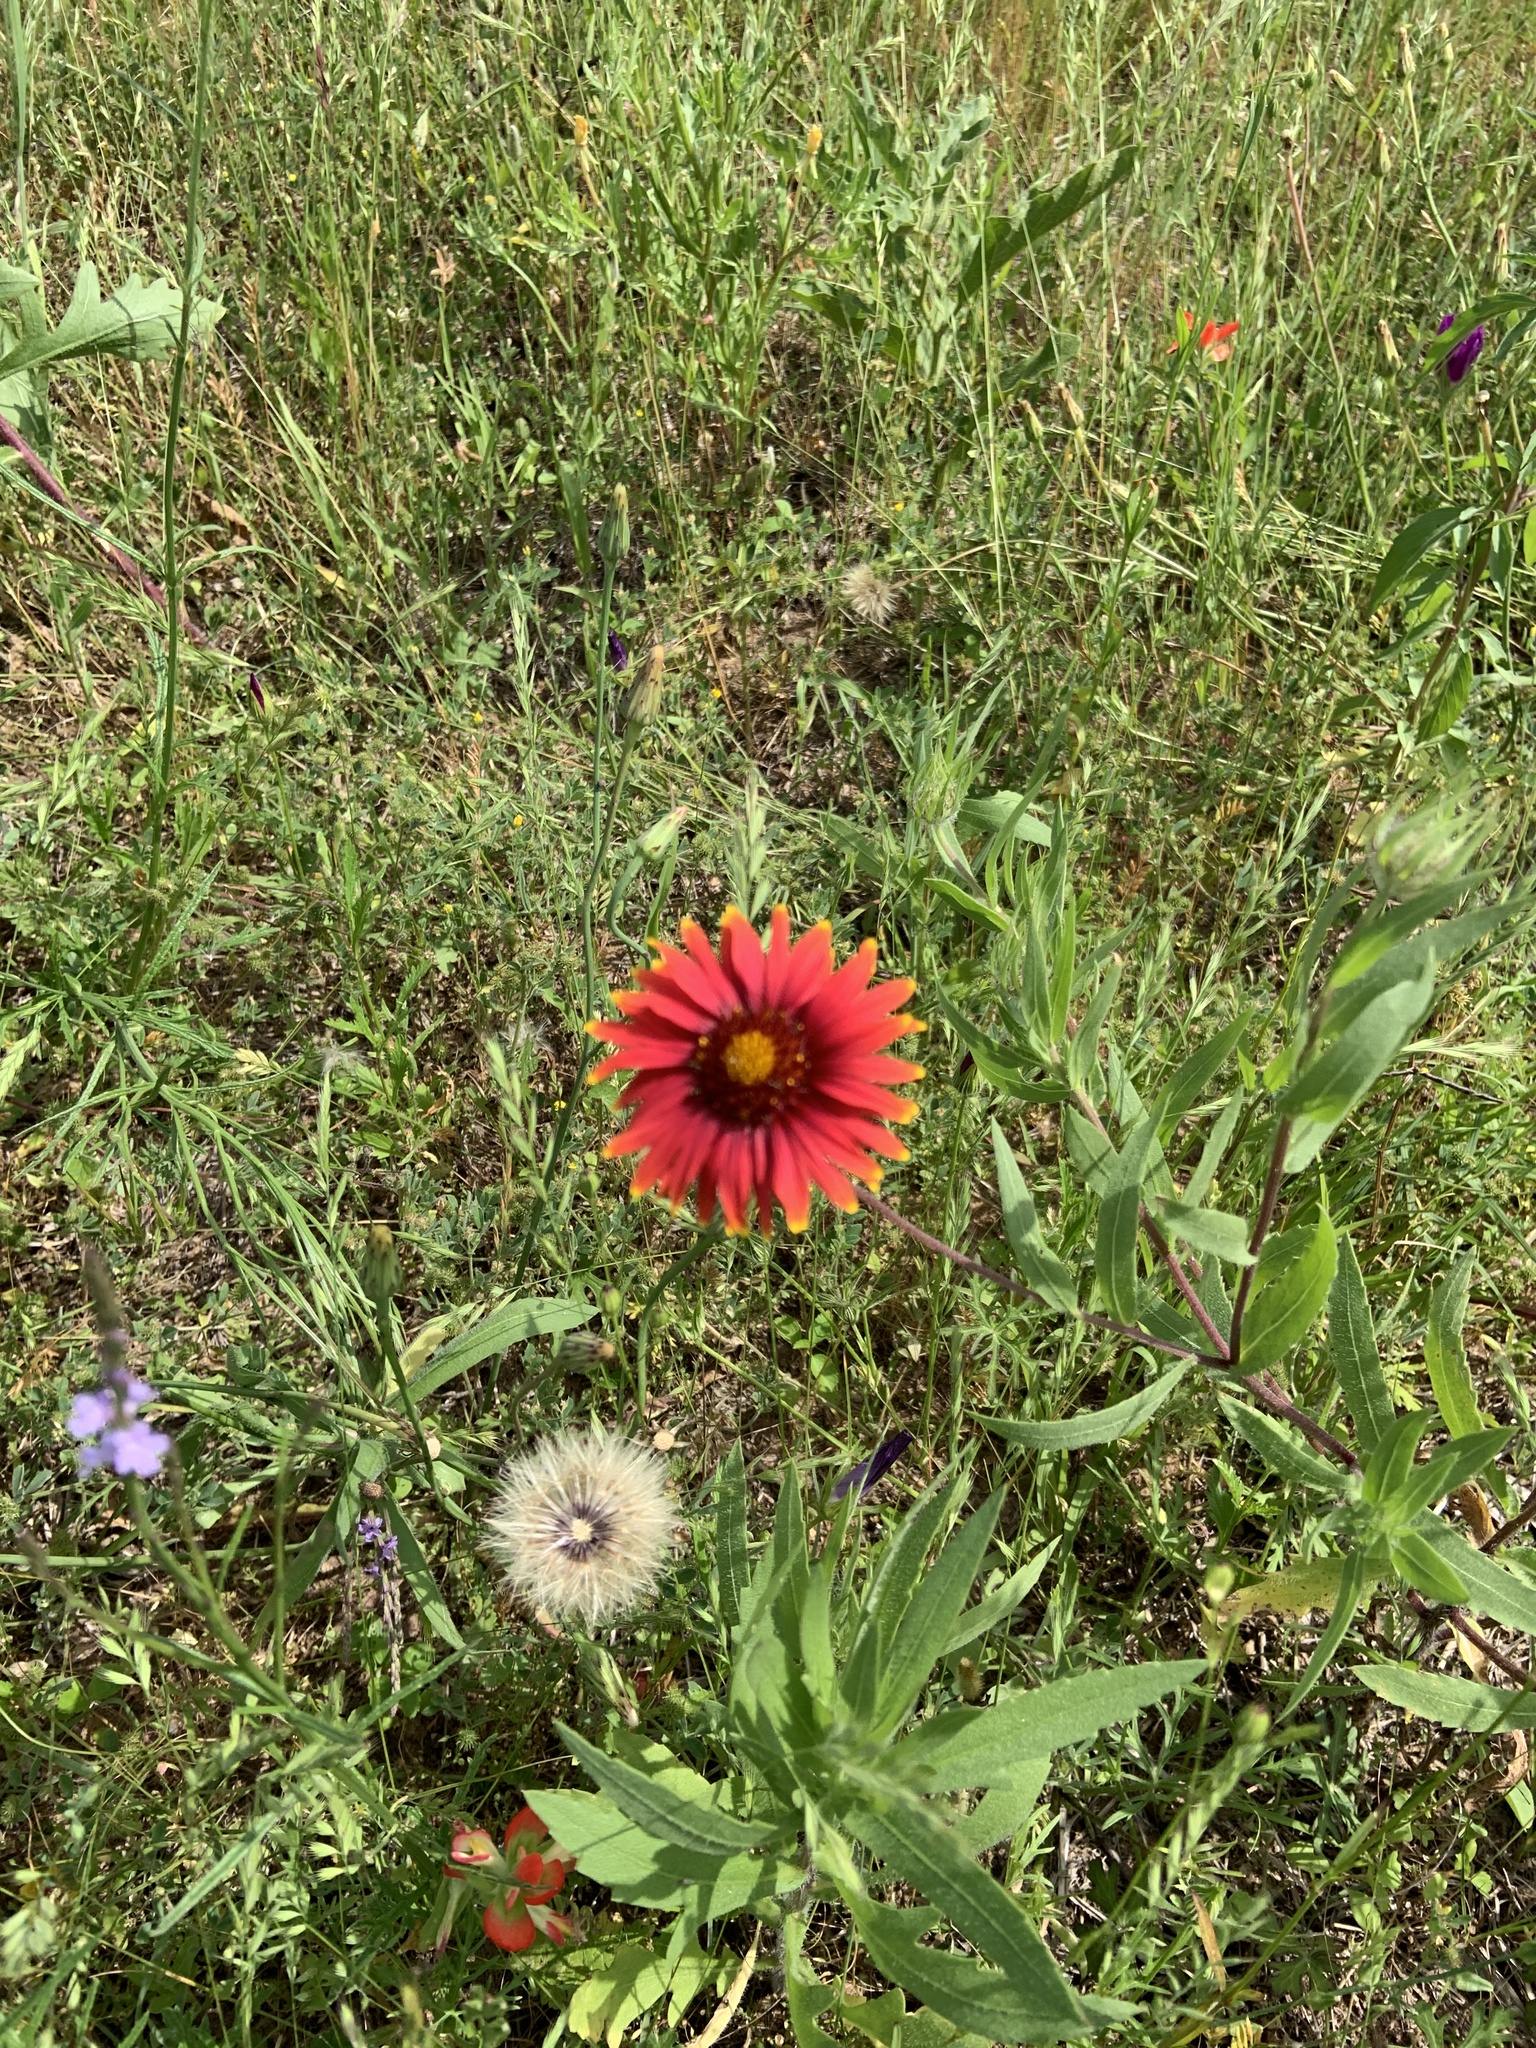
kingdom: Plantae
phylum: Tracheophyta
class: Magnoliopsida
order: Asterales
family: Asteraceae
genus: Gaillardia
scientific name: Gaillardia pulchella
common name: Firewheel
